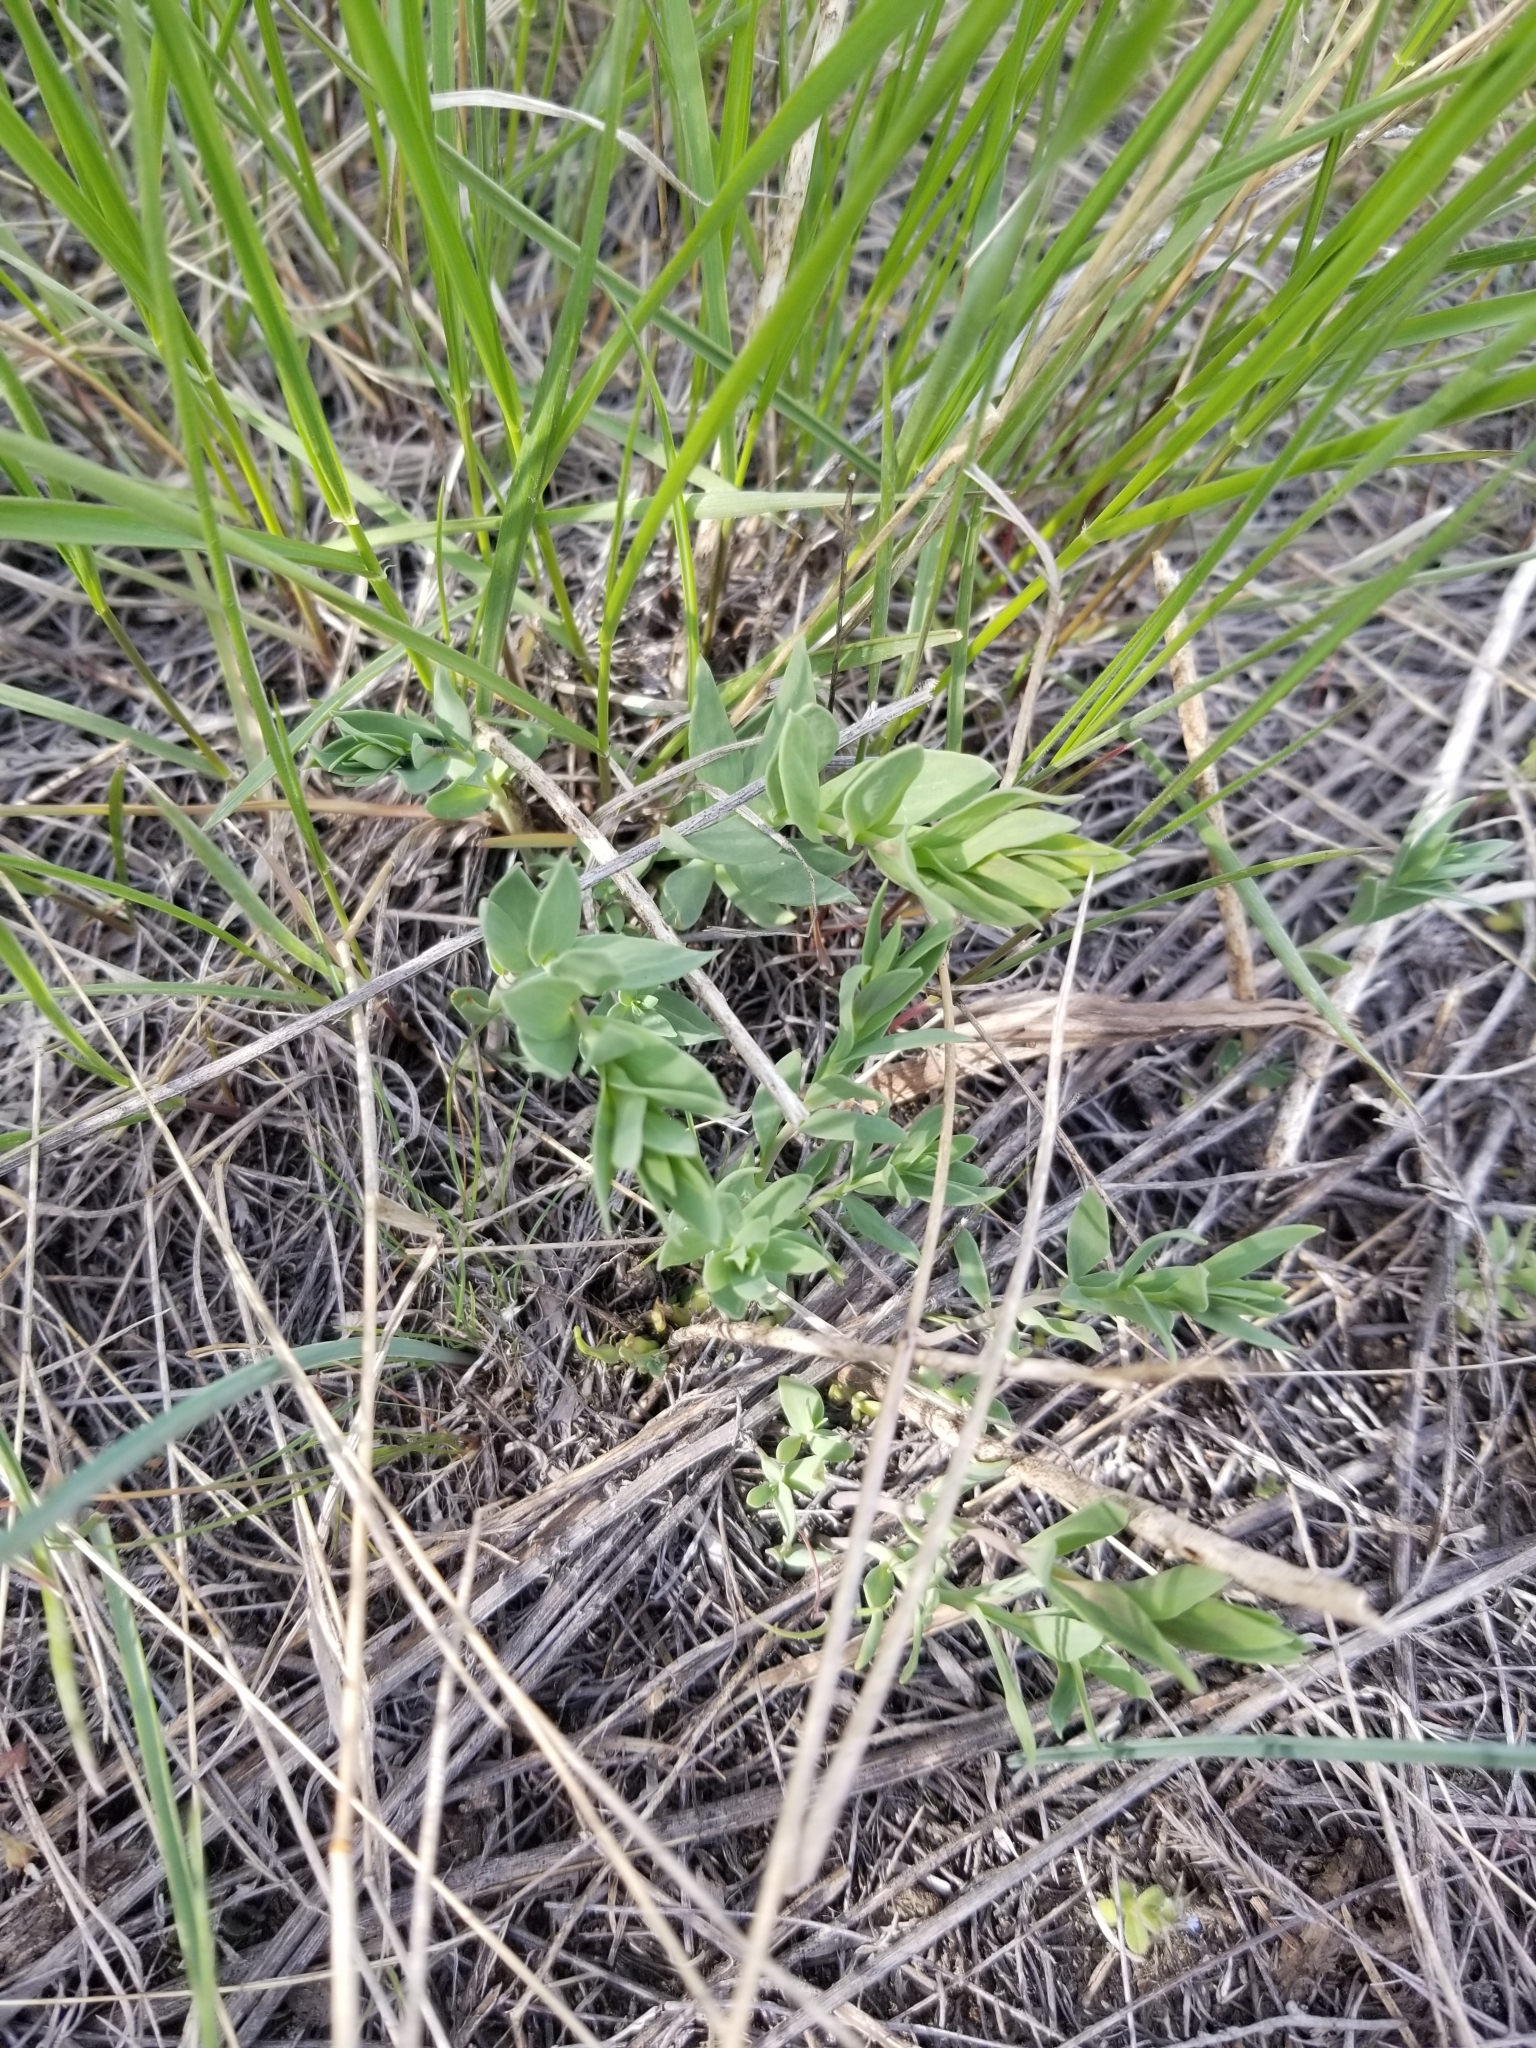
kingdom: Plantae
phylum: Tracheophyta
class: Magnoliopsida
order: Lamiales
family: Plantaginaceae
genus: Linaria
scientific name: Linaria dalmatica
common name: Dalmatian toadflax
